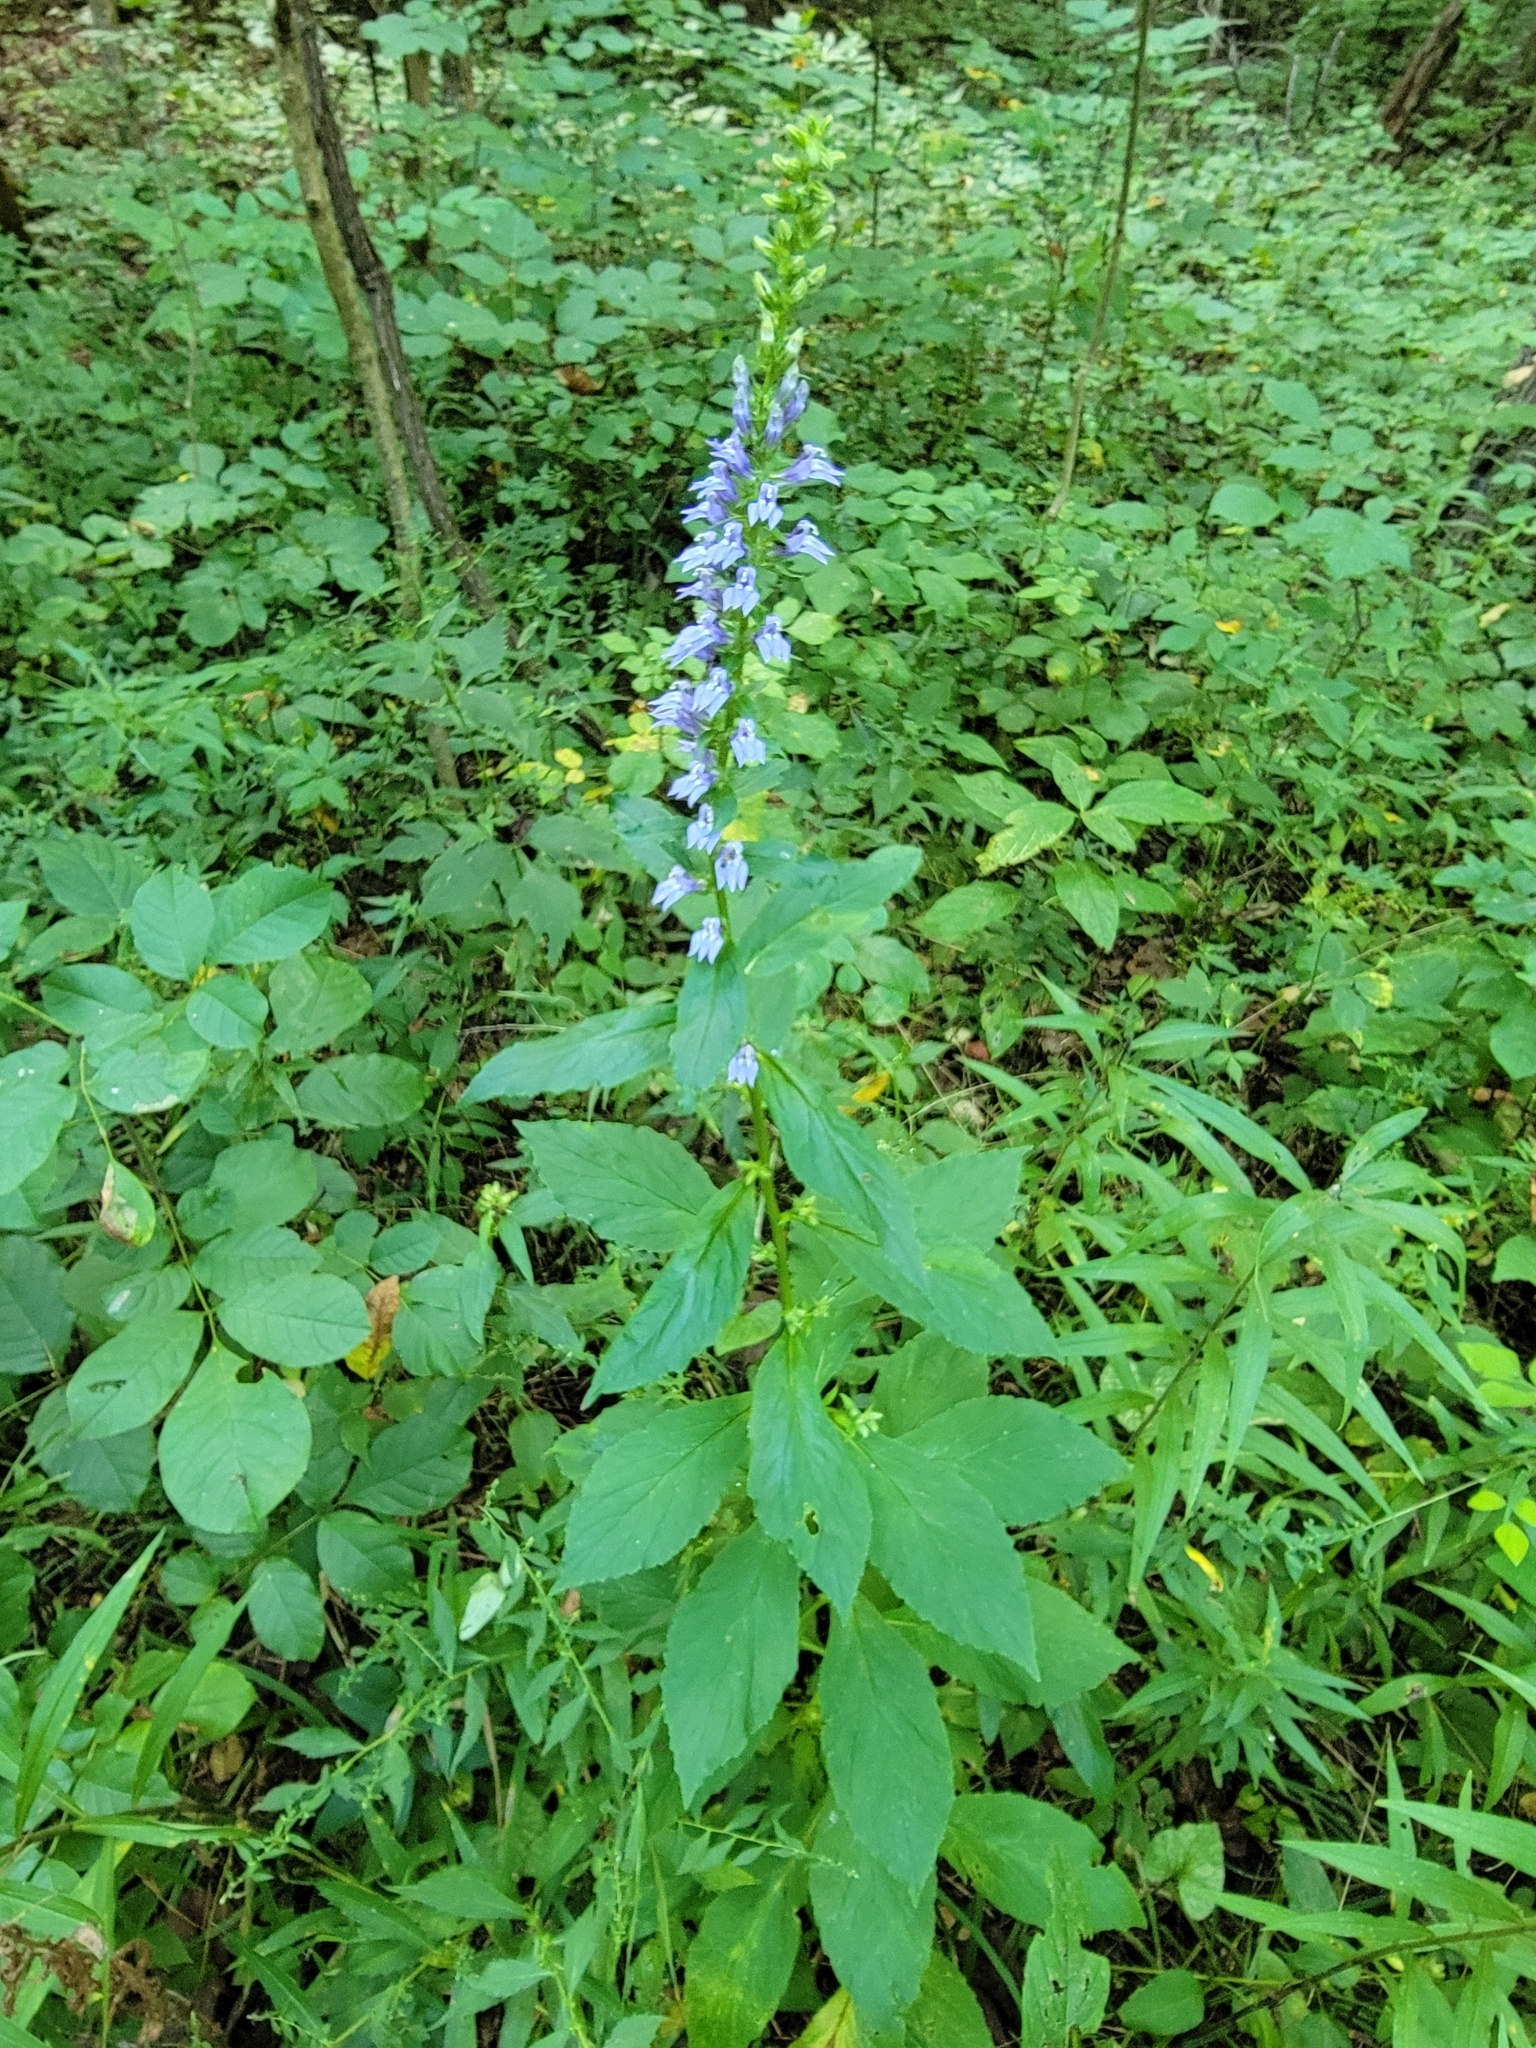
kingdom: Plantae
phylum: Tracheophyta
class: Magnoliopsida
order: Asterales
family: Campanulaceae
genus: Lobelia
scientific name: Lobelia siphilitica
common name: Great lobelia
